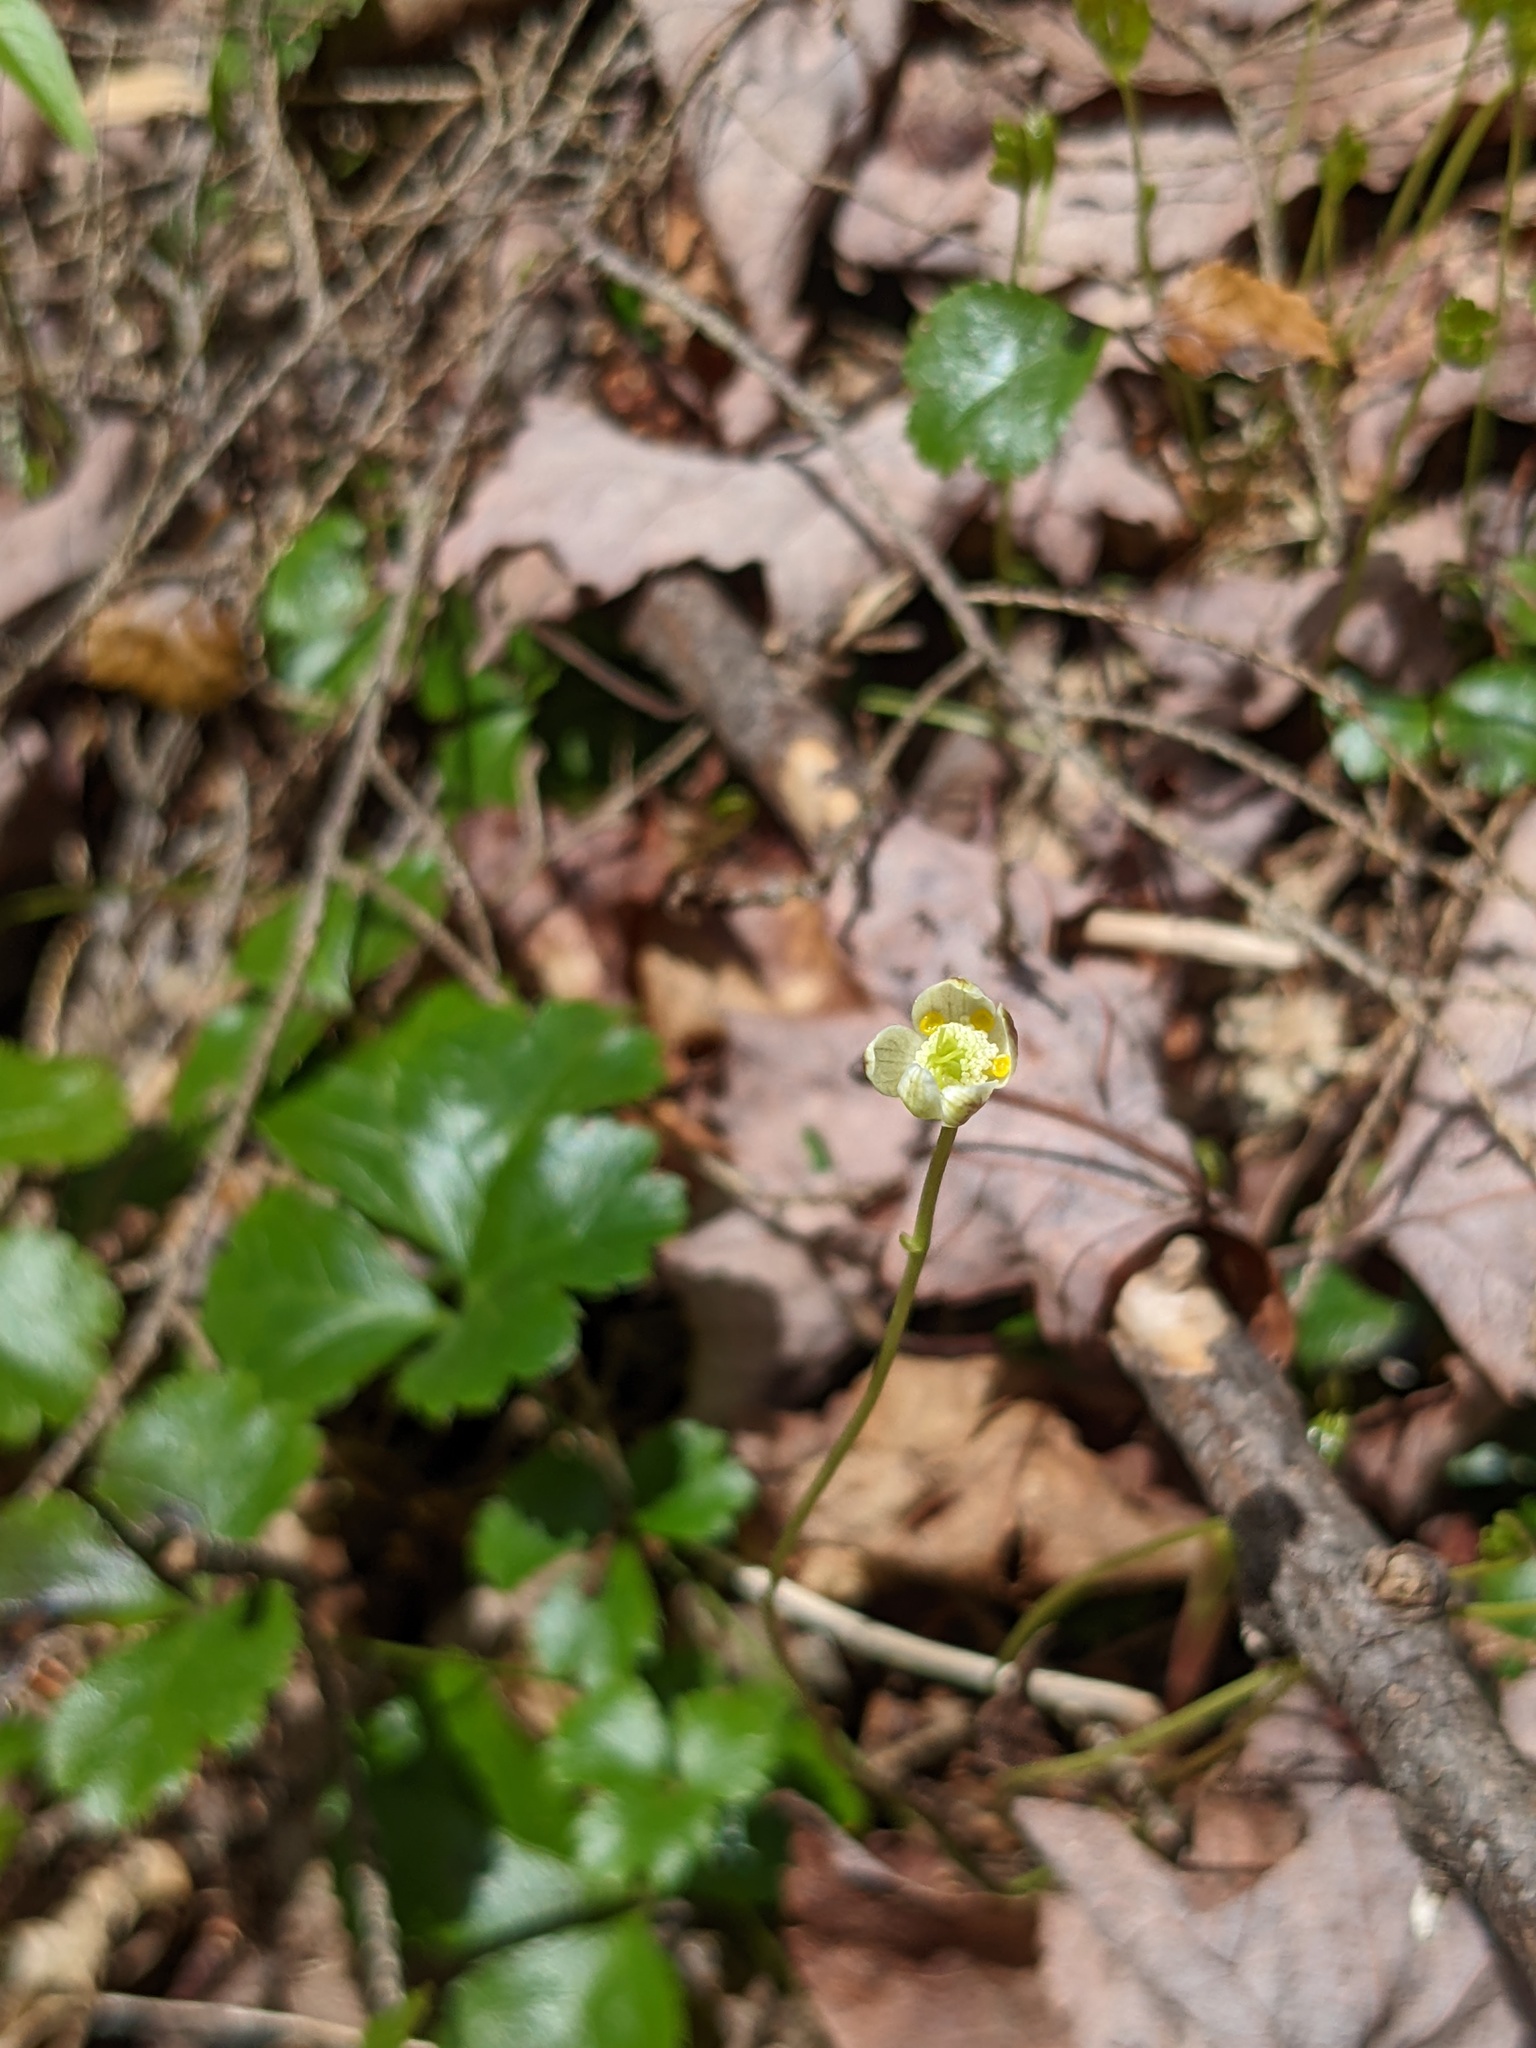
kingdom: Plantae
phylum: Tracheophyta
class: Magnoliopsida
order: Ranunculales
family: Ranunculaceae
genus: Coptis
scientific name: Coptis trifolia
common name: Canker-root
